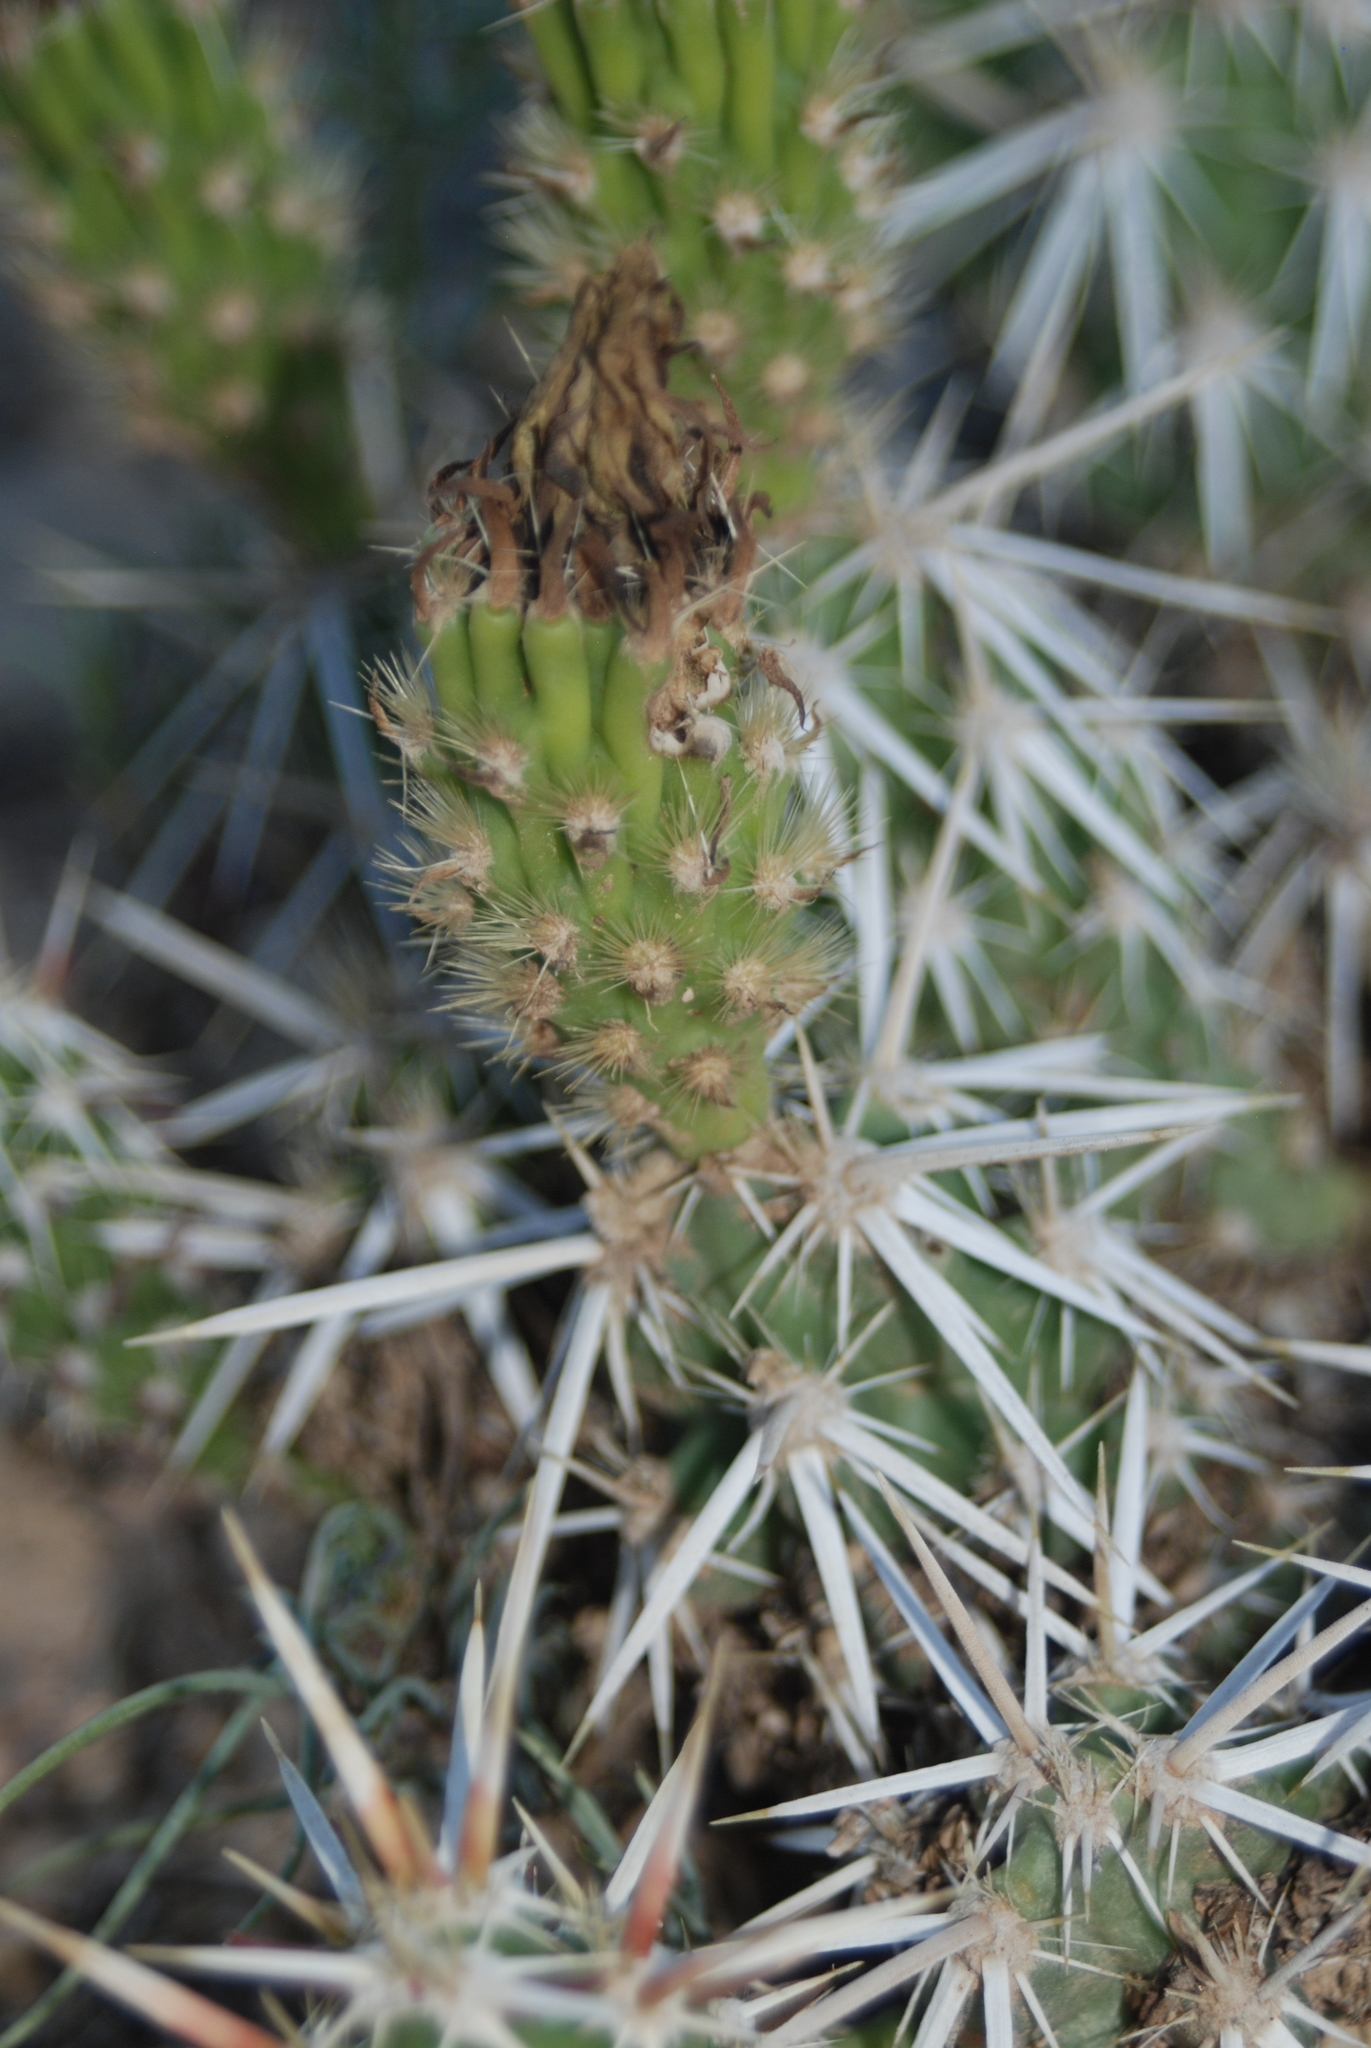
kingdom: Plantae
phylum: Tracheophyta
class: Magnoliopsida
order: Caryophyllales
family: Cactaceae
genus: Grusonia
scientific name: Grusonia clavata
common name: Club cholla
